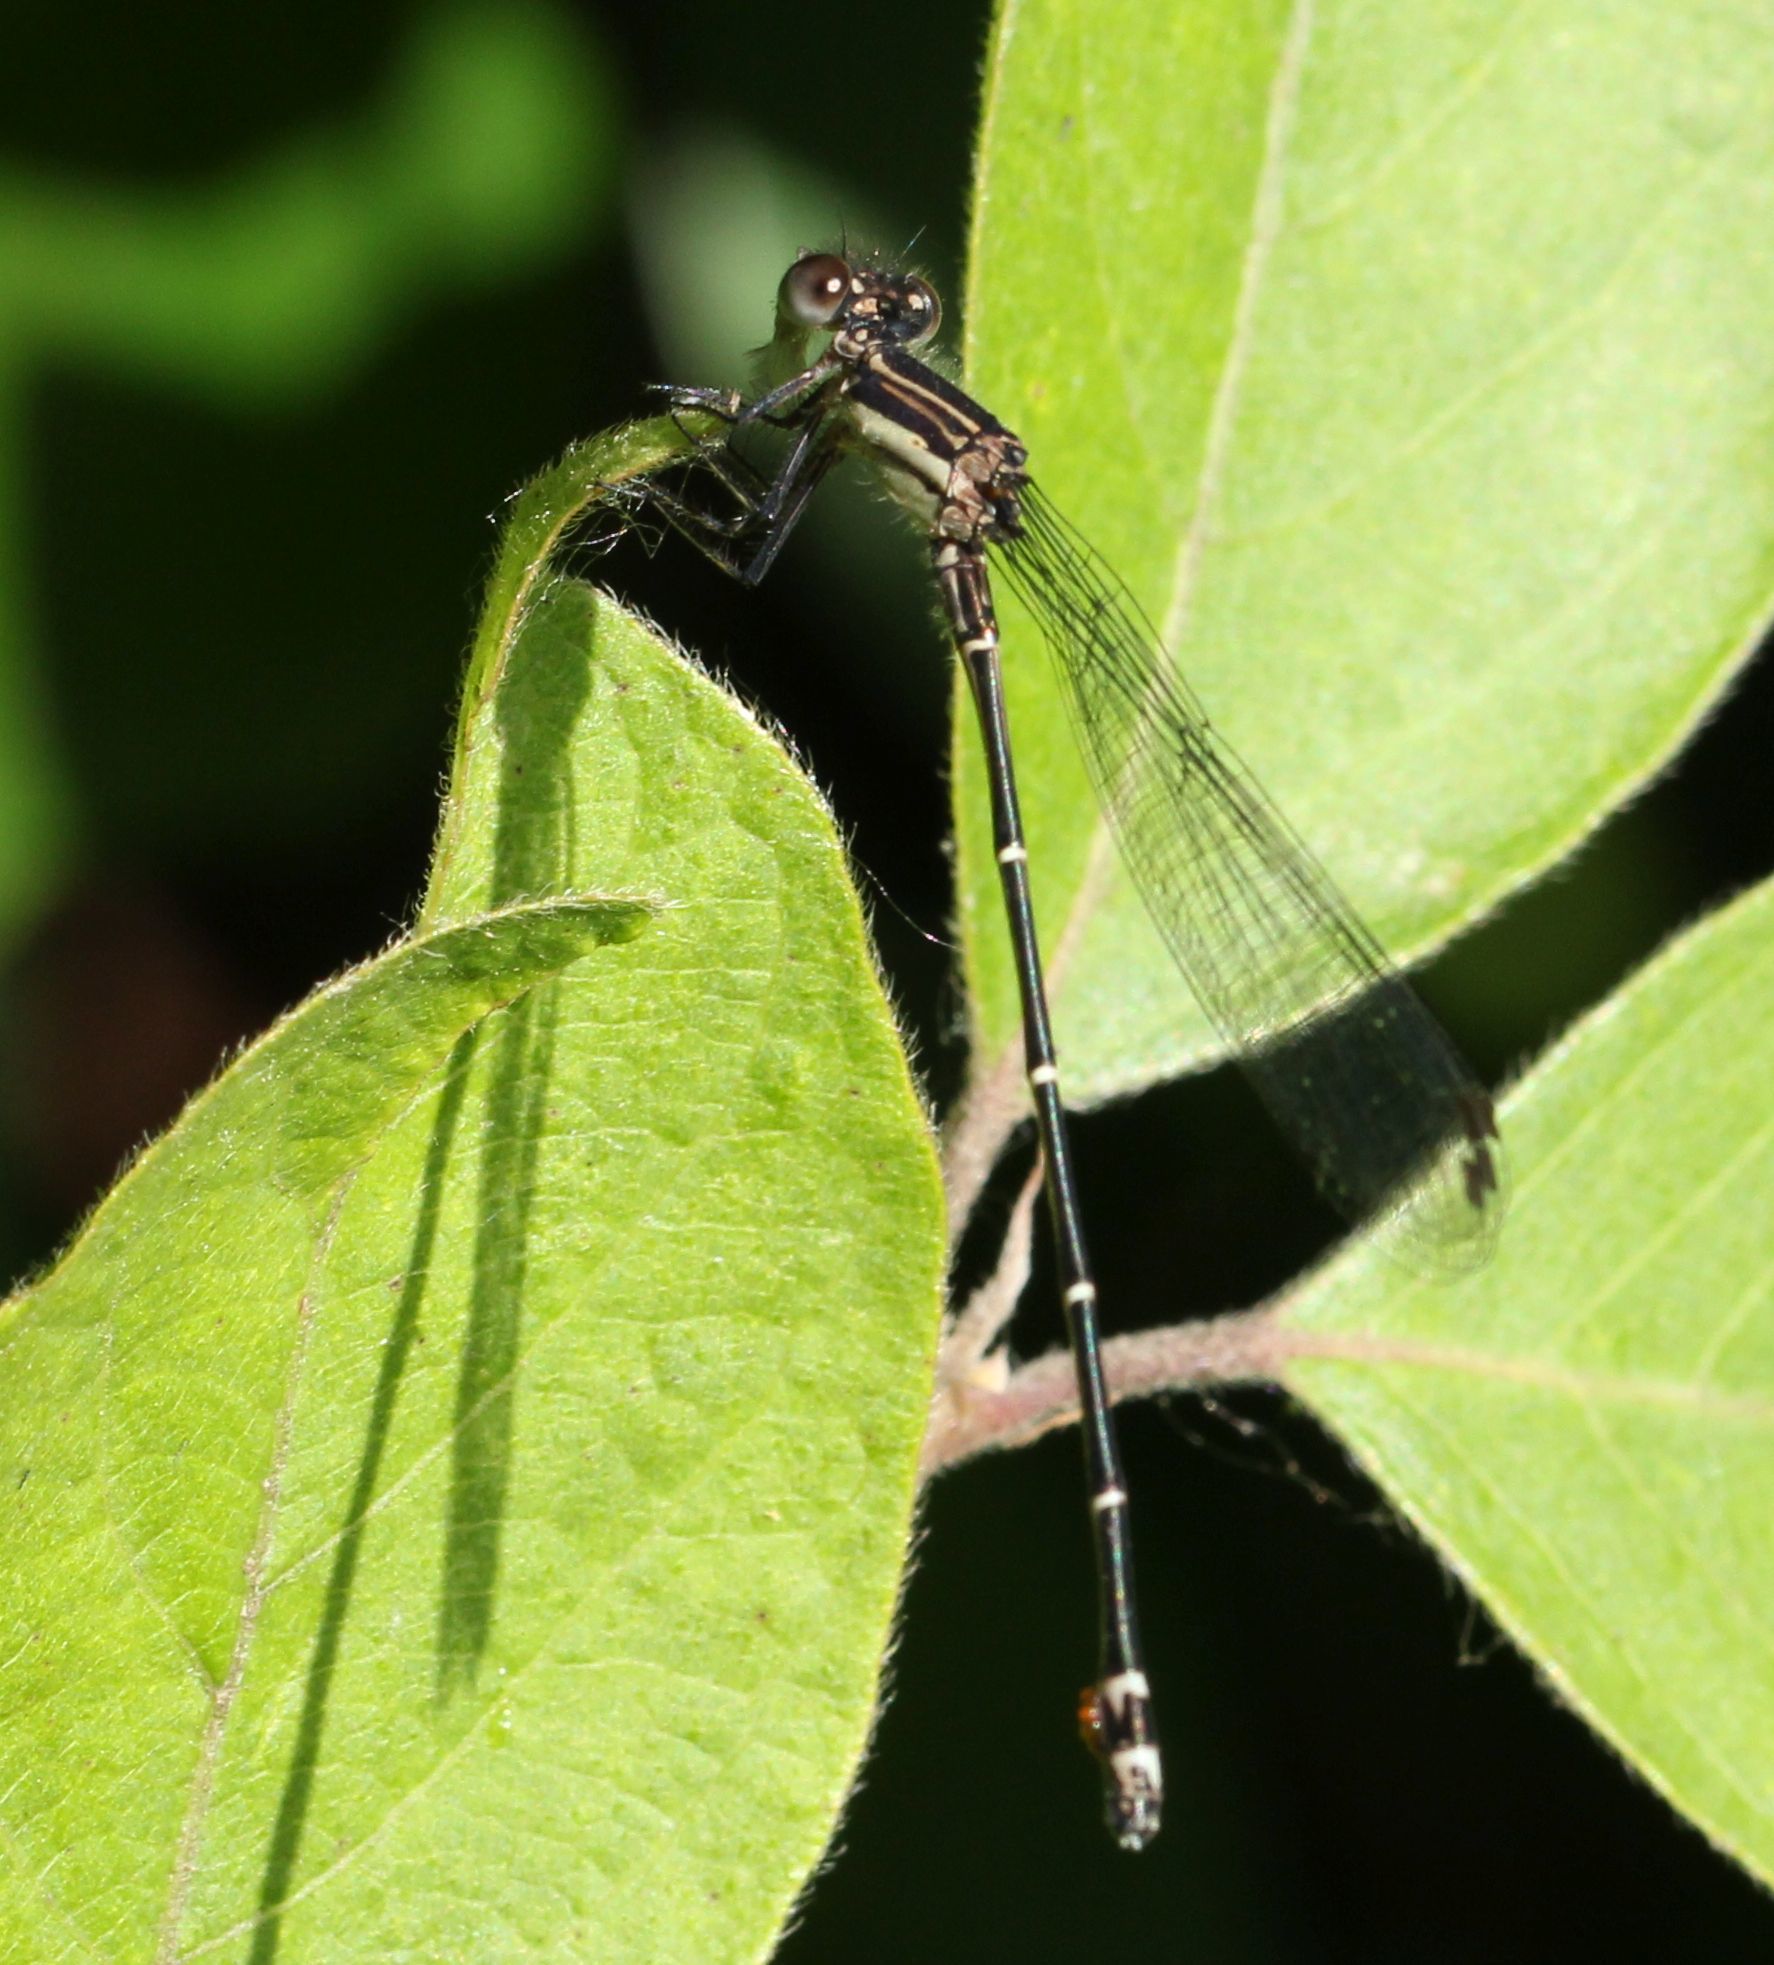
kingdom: Animalia
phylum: Arthropoda
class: Insecta
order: Odonata
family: Coenagrionidae
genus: Argia
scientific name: Argia translata
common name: Dusky dancer
